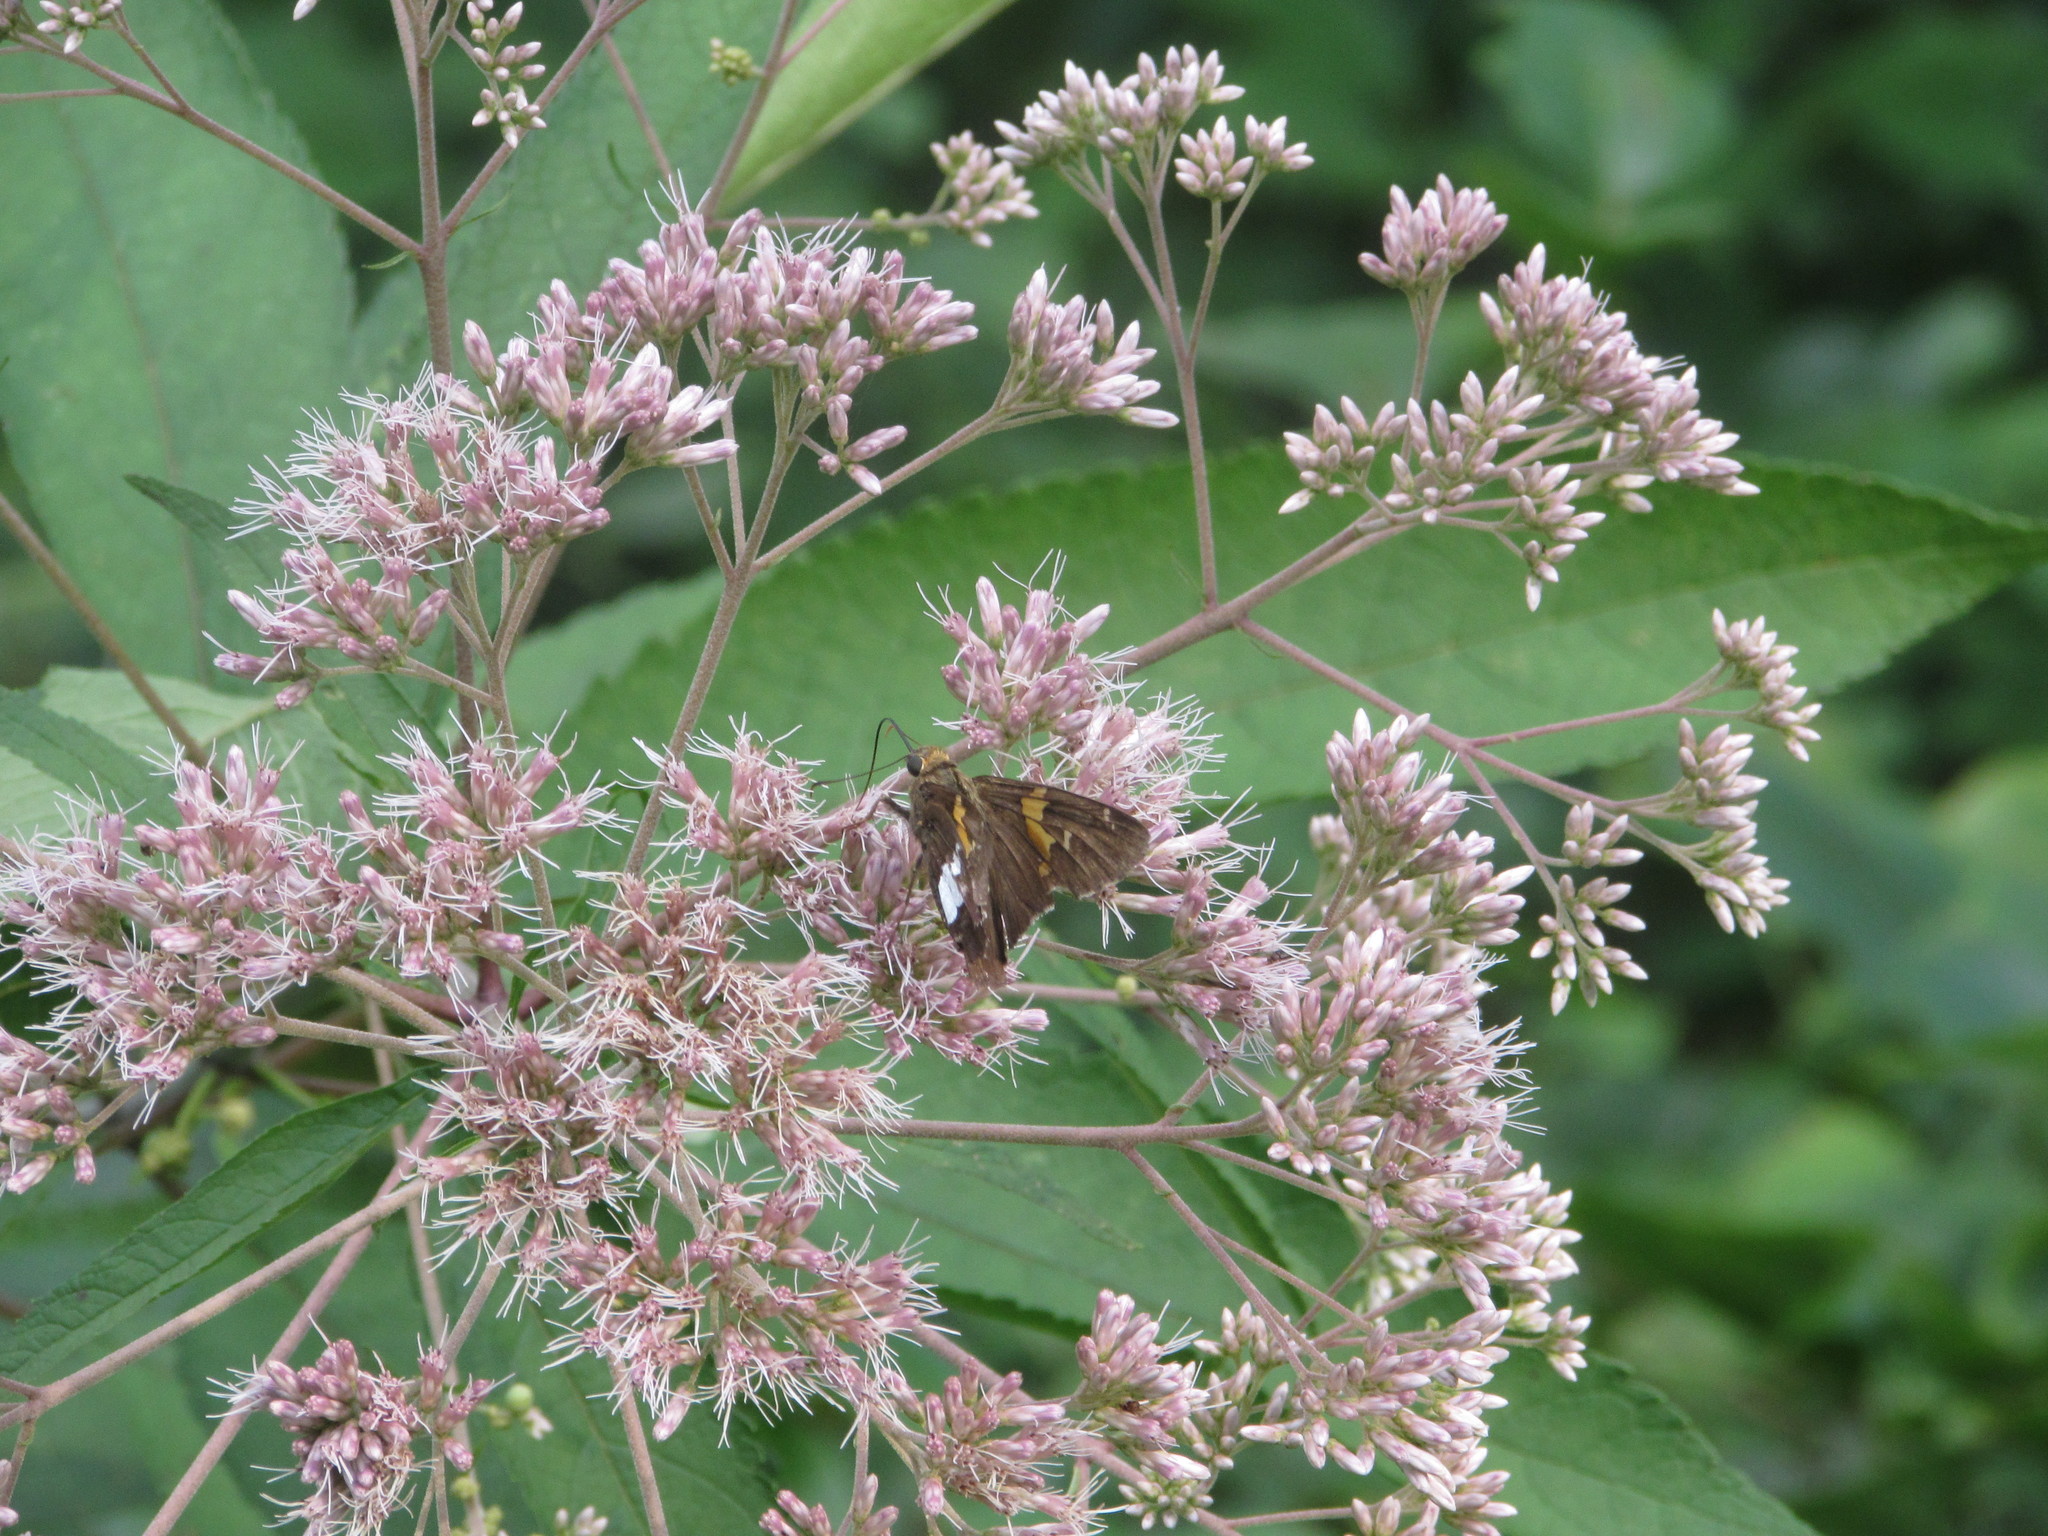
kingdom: Animalia
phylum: Arthropoda
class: Insecta
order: Lepidoptera
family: Hesperiidae
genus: Epargyreus
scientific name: Epargyreus clarus
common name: Silver-spotted skipper
